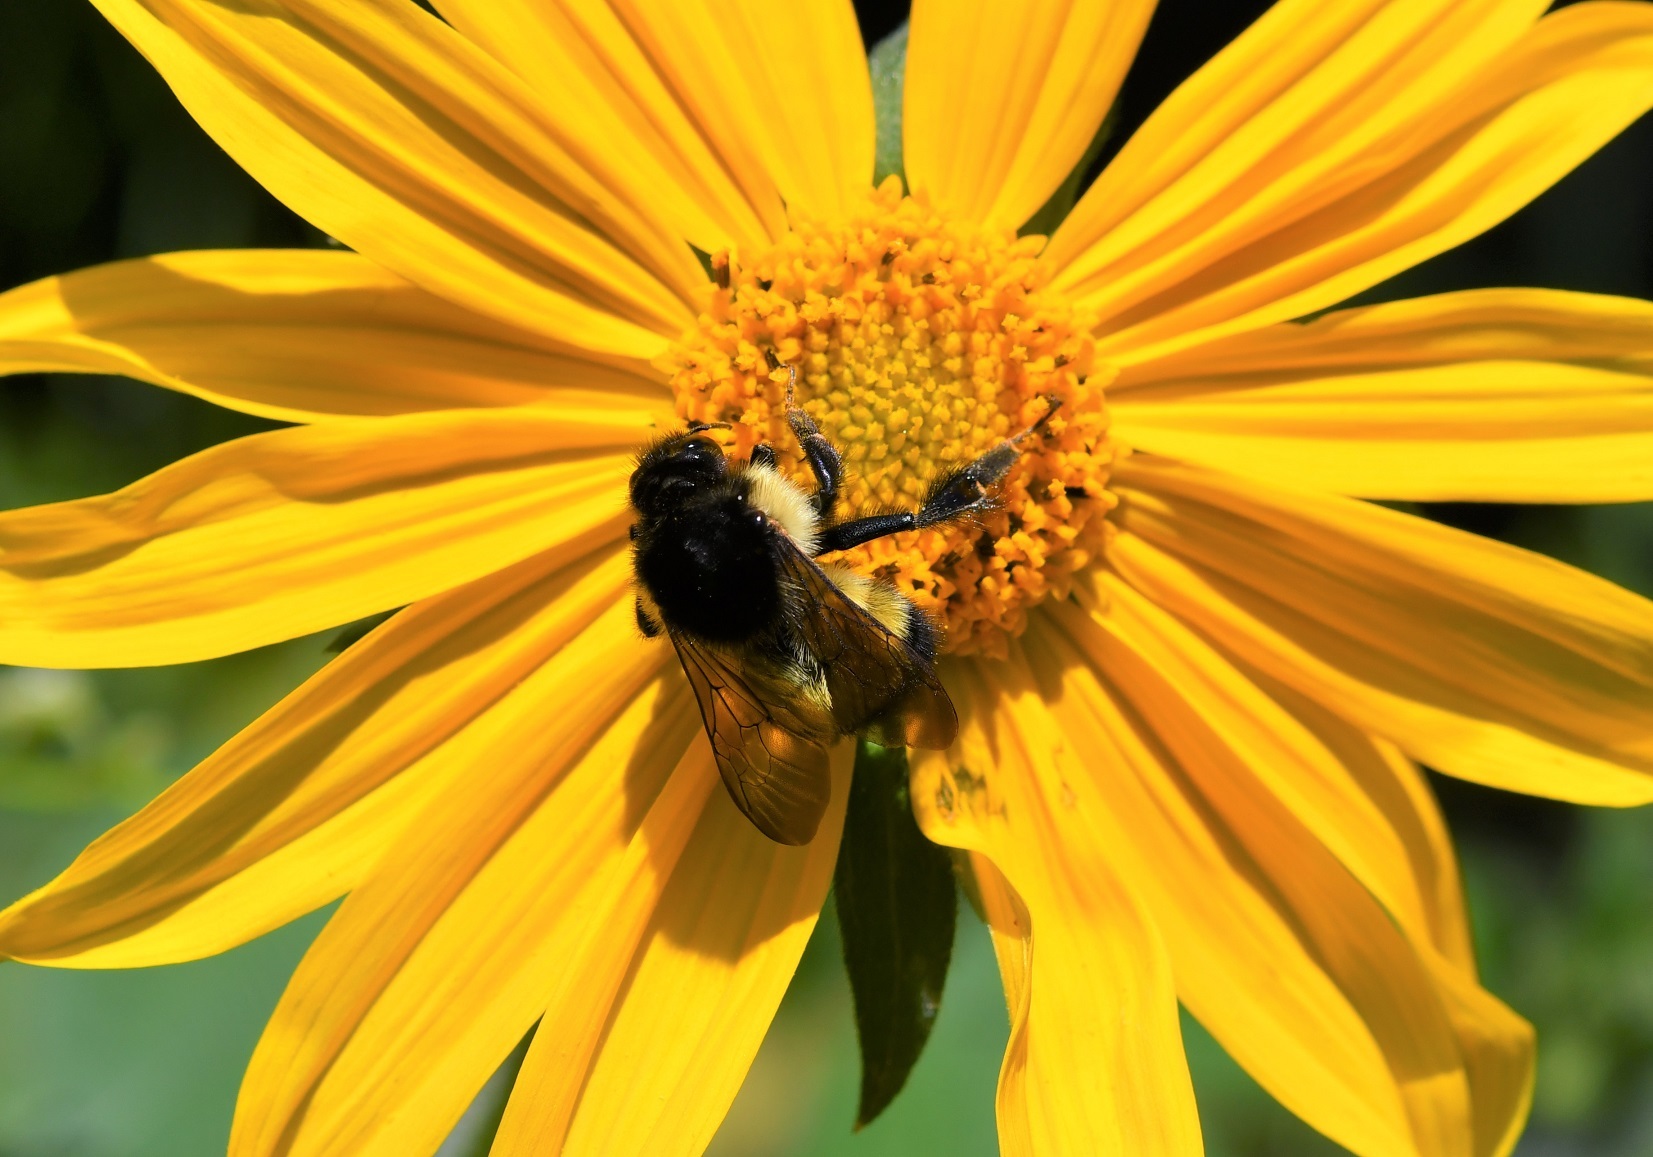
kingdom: Animalia
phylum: Arthropoda
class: Insecta
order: Hymenoptera
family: Apidae
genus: Bombus
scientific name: Bombus weisi
